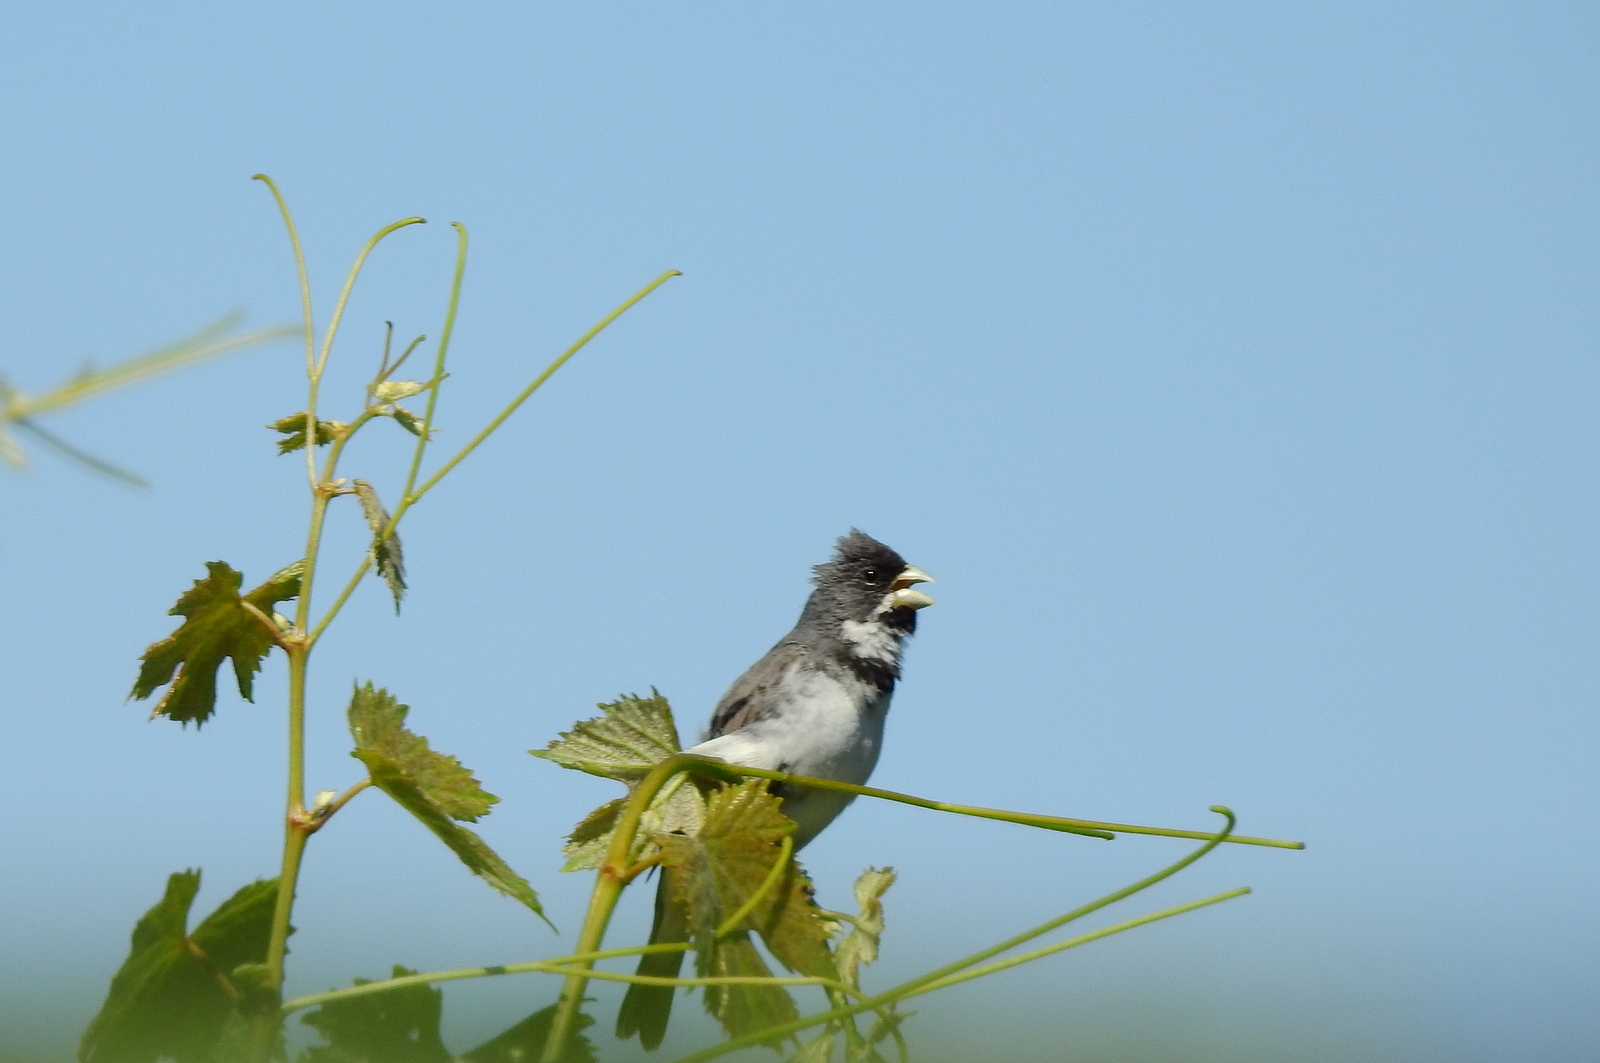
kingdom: Animalia
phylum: Chordata
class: Aves
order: Passeriformes
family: Thraupidae
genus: Sporophila
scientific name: Sporophila caerulescens
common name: Double-collared seedeater
